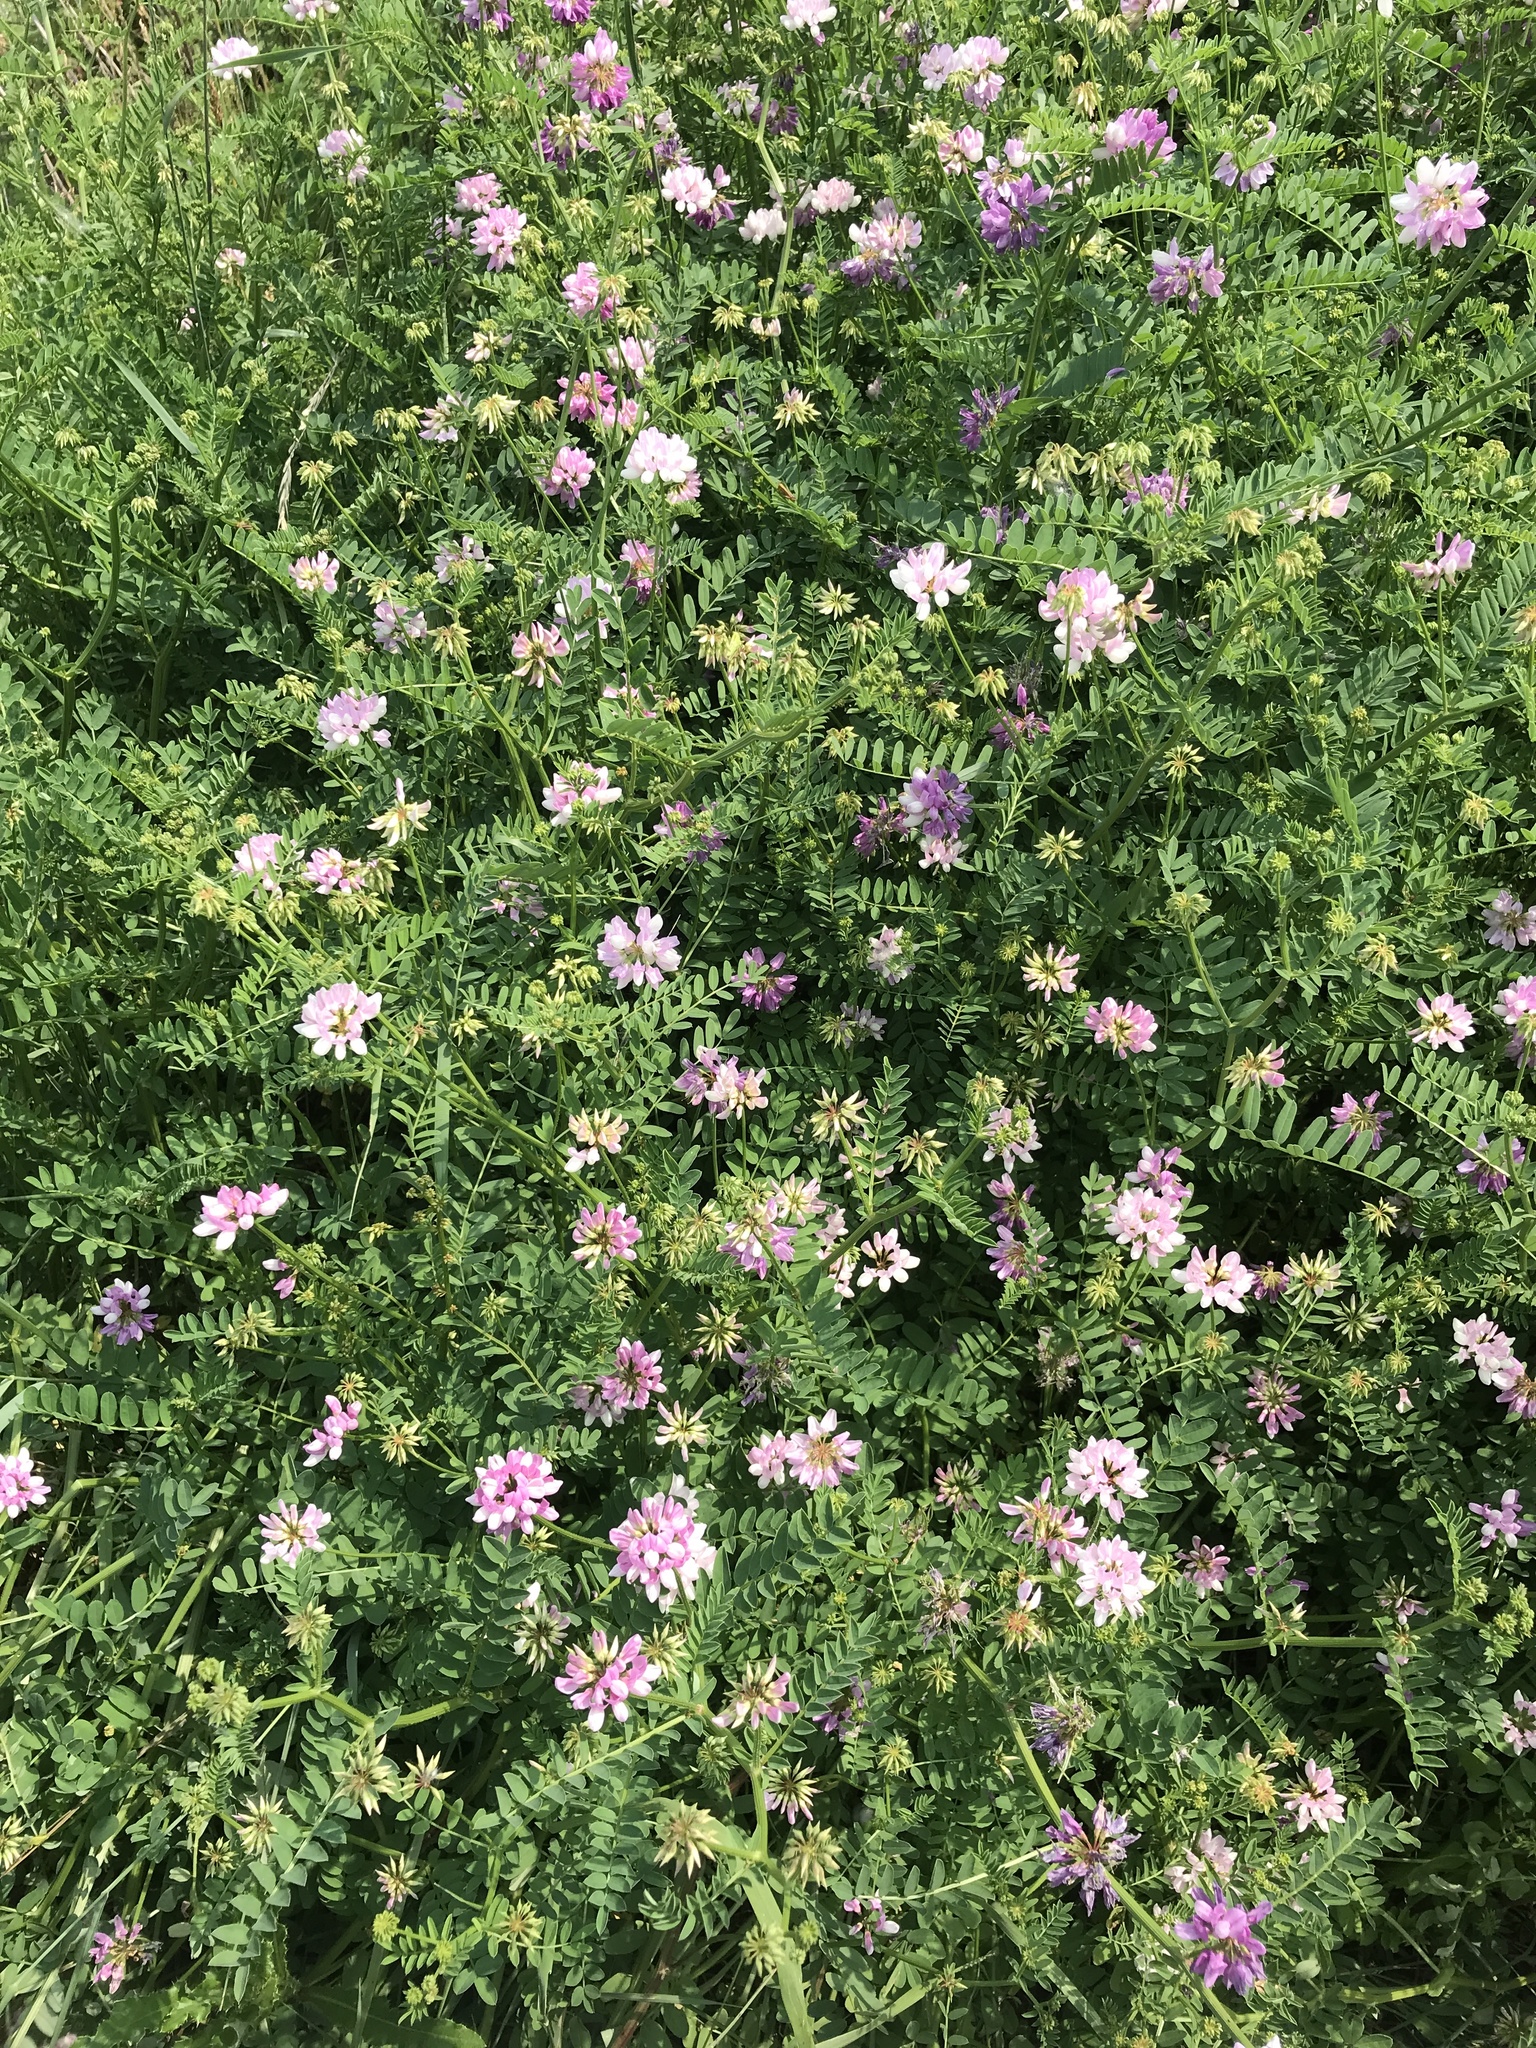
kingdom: Plantae
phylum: Tracheophyta
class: Magnoliopsida
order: Fabales
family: Fabaceae
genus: Coronilla
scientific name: Coronilla varia
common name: Crownvetch
